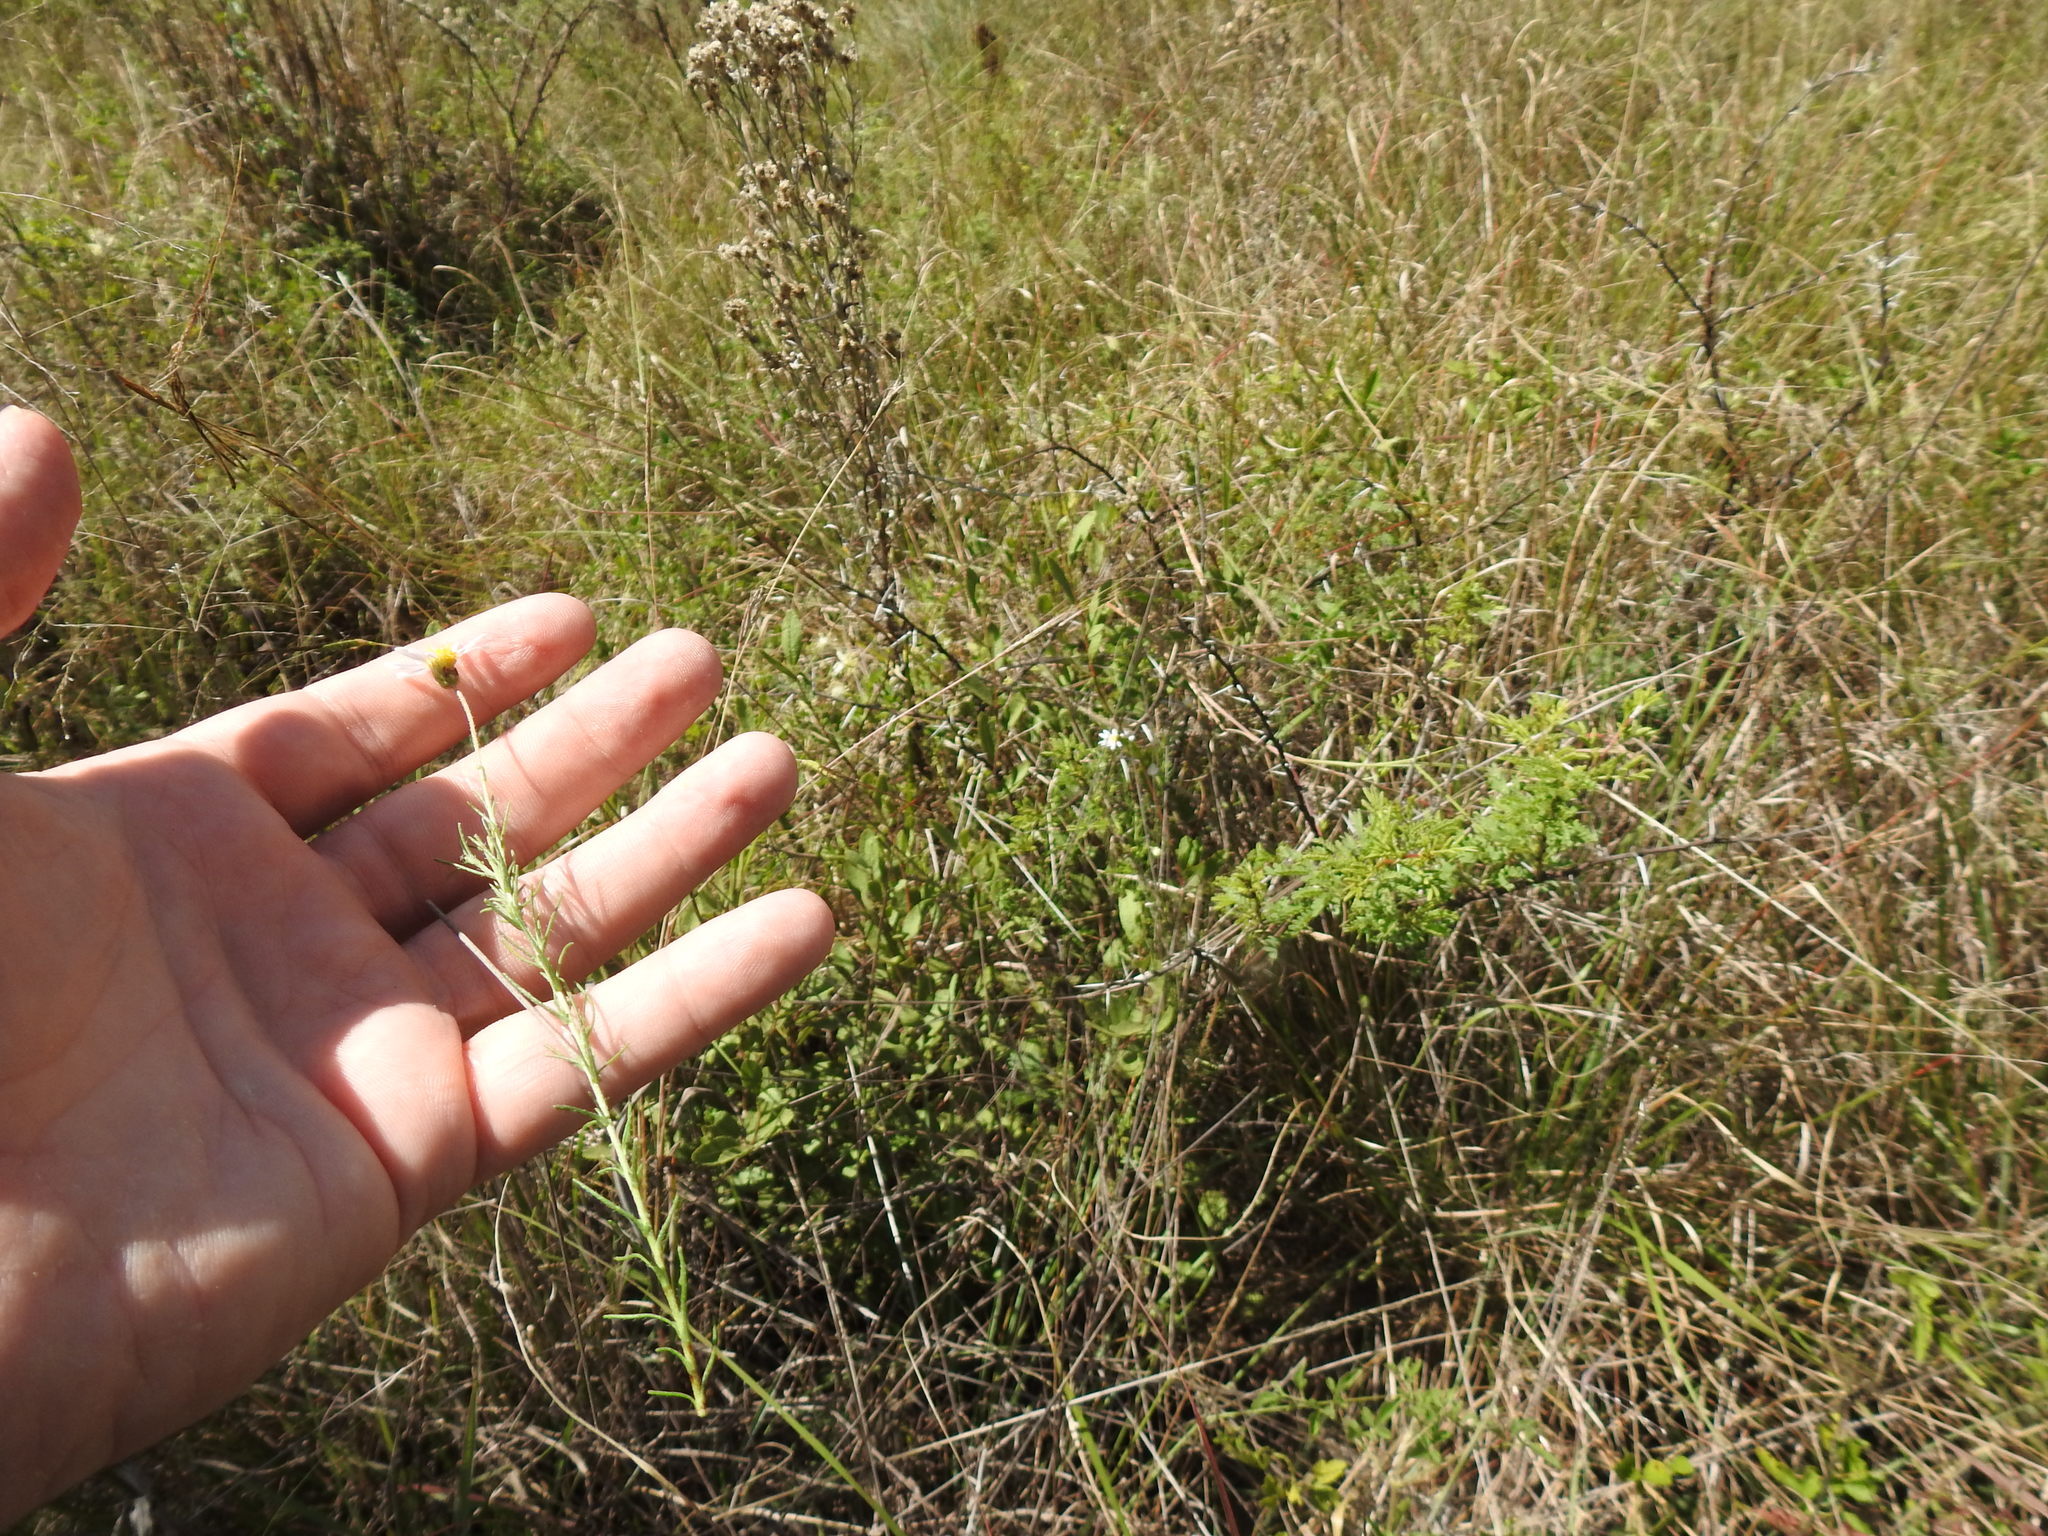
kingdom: Plantae
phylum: Tracheophyta
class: Magnoliopsida
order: Asterales
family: Asteraceae
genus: Felicia
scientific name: Felicia muricata
